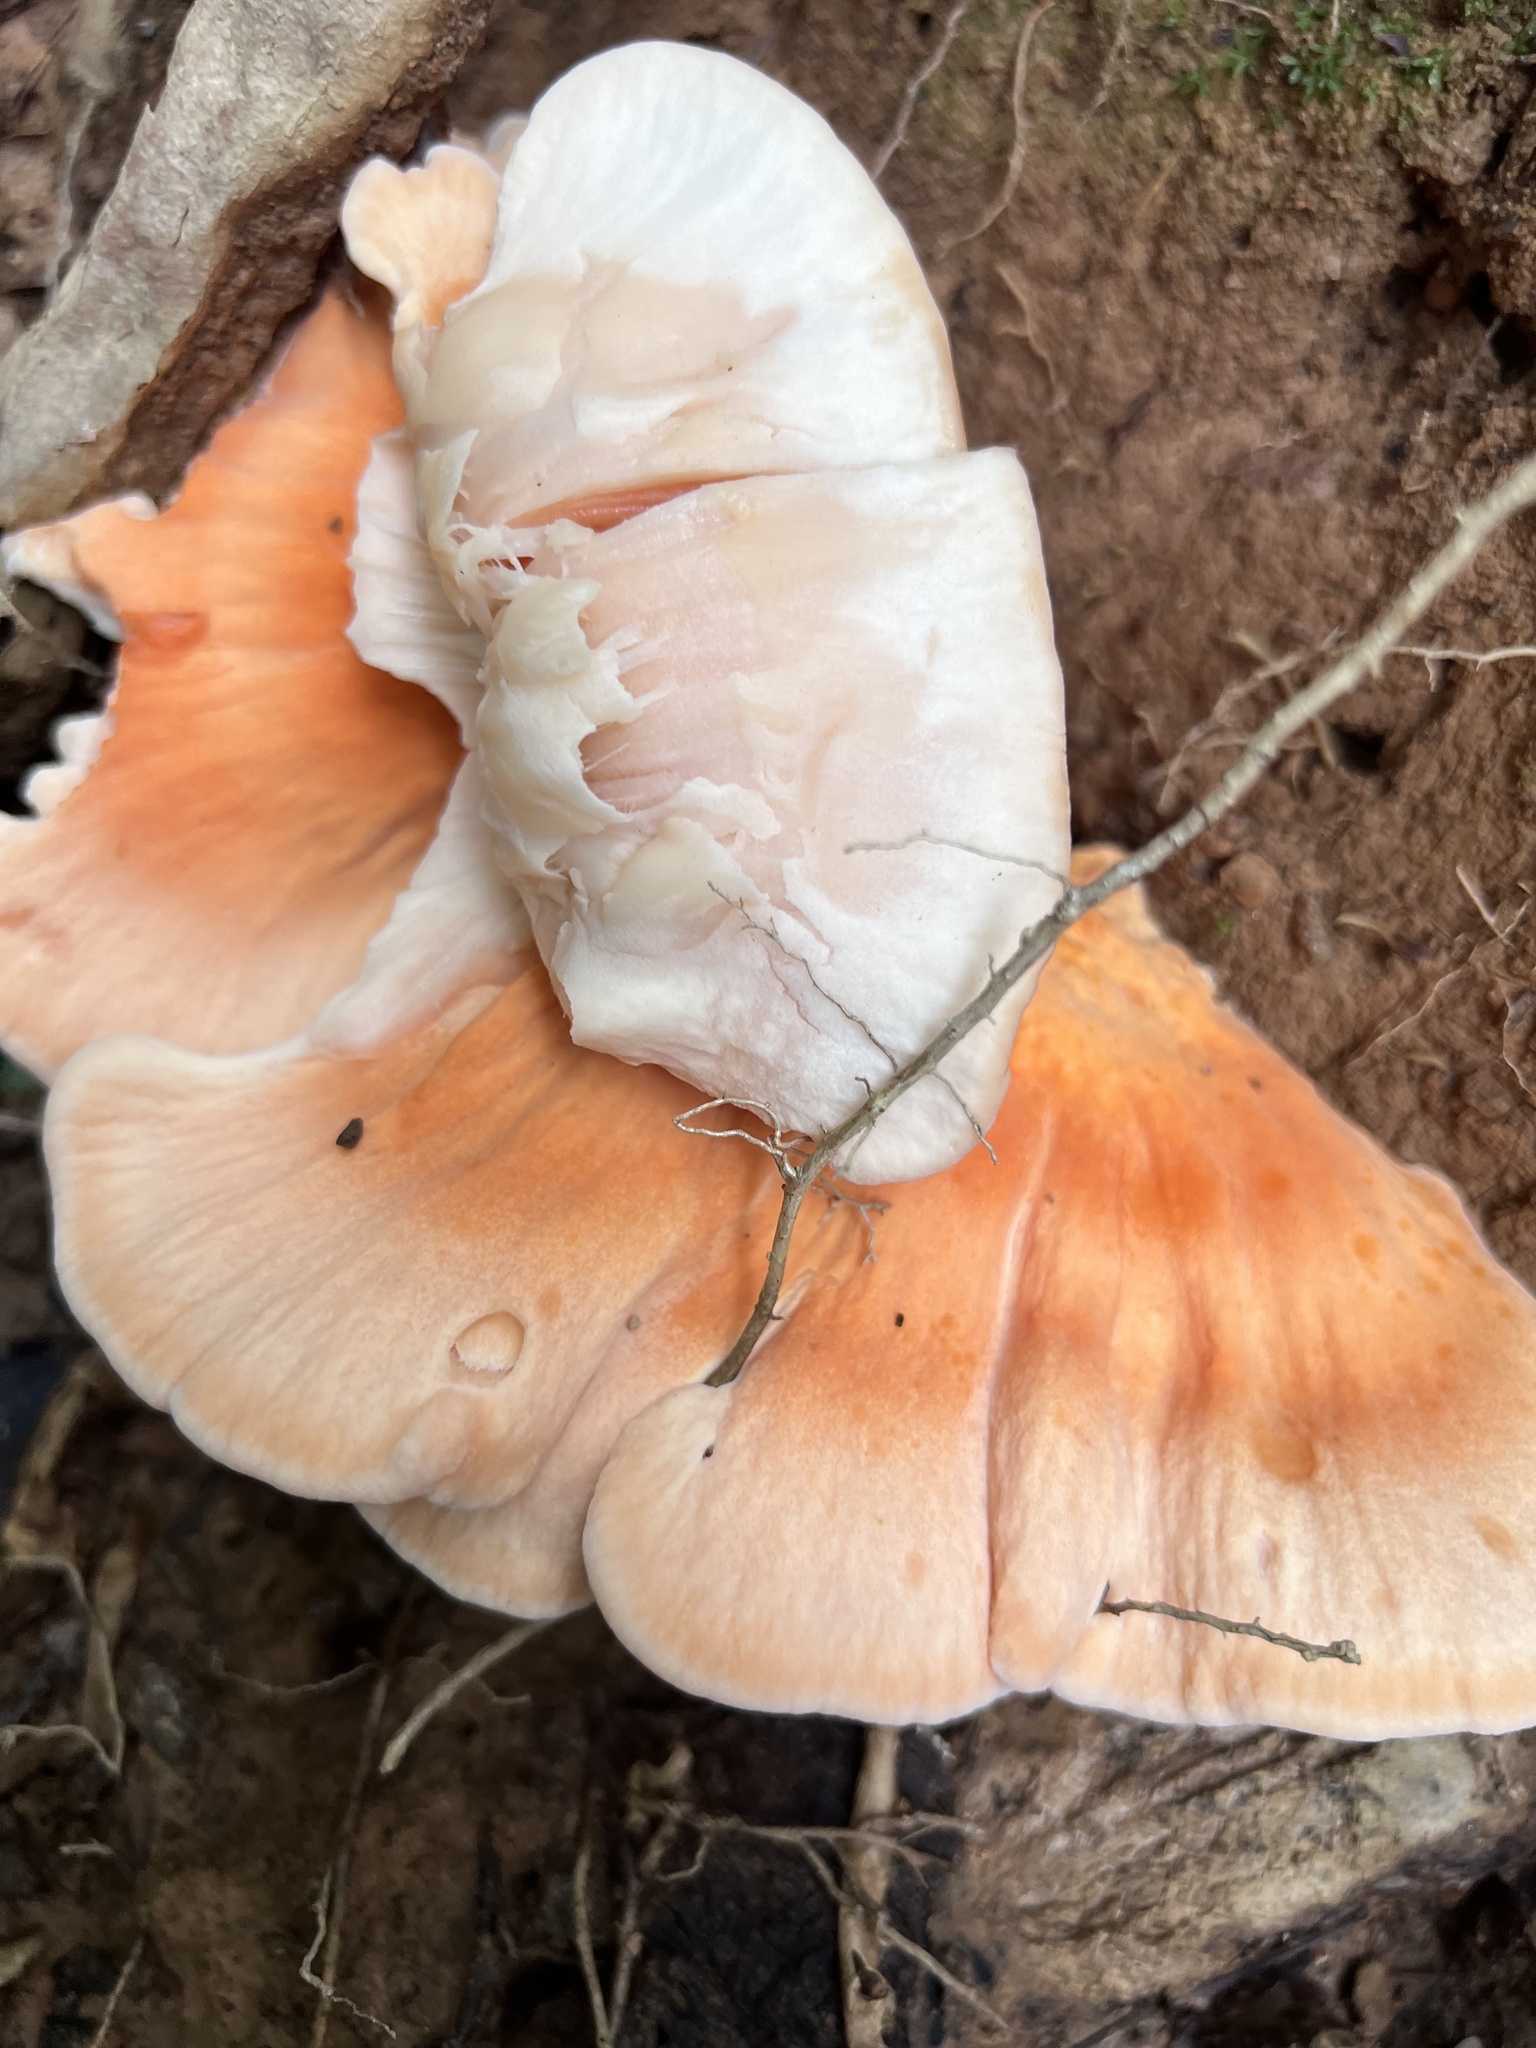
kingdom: Fungi
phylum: Basidiomycota
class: Agaricomycetes
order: Polyporales
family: Laetiporaceae
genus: Laetiporus
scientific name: Laetiporus sulphureus
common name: Chicken of the woods
